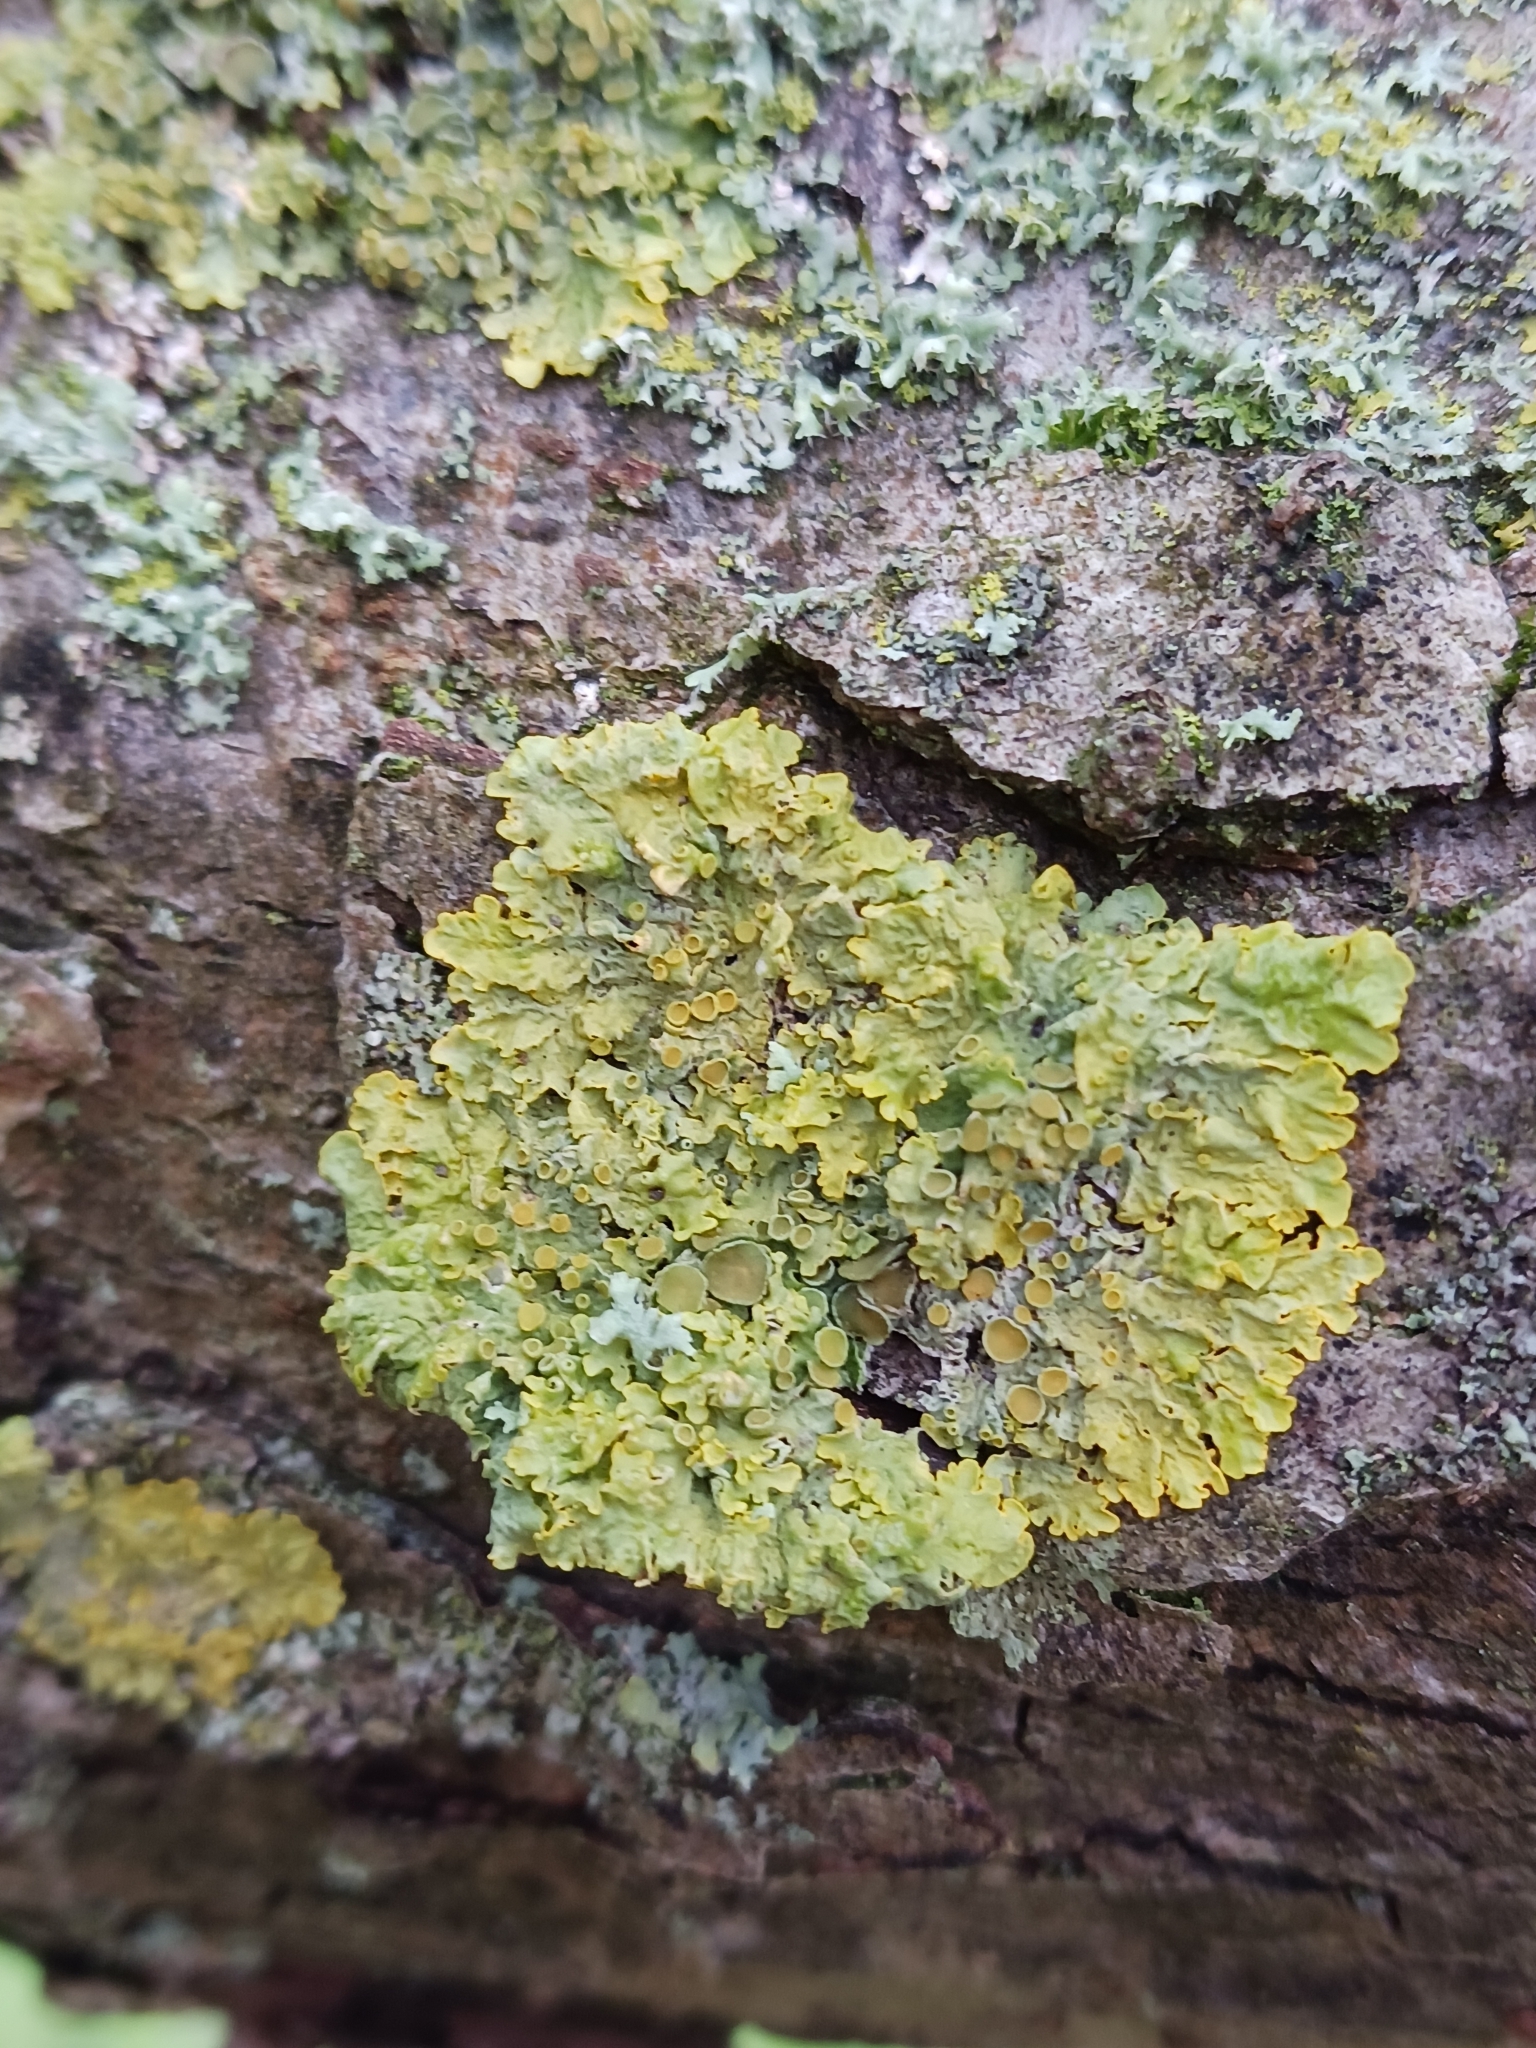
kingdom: Fungi
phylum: Ascomycota
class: Lecanoromycetes
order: Teloschistales
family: Teloschistaceae
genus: Xanthoria
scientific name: Xanthoria parietina
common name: Common orange lichen
